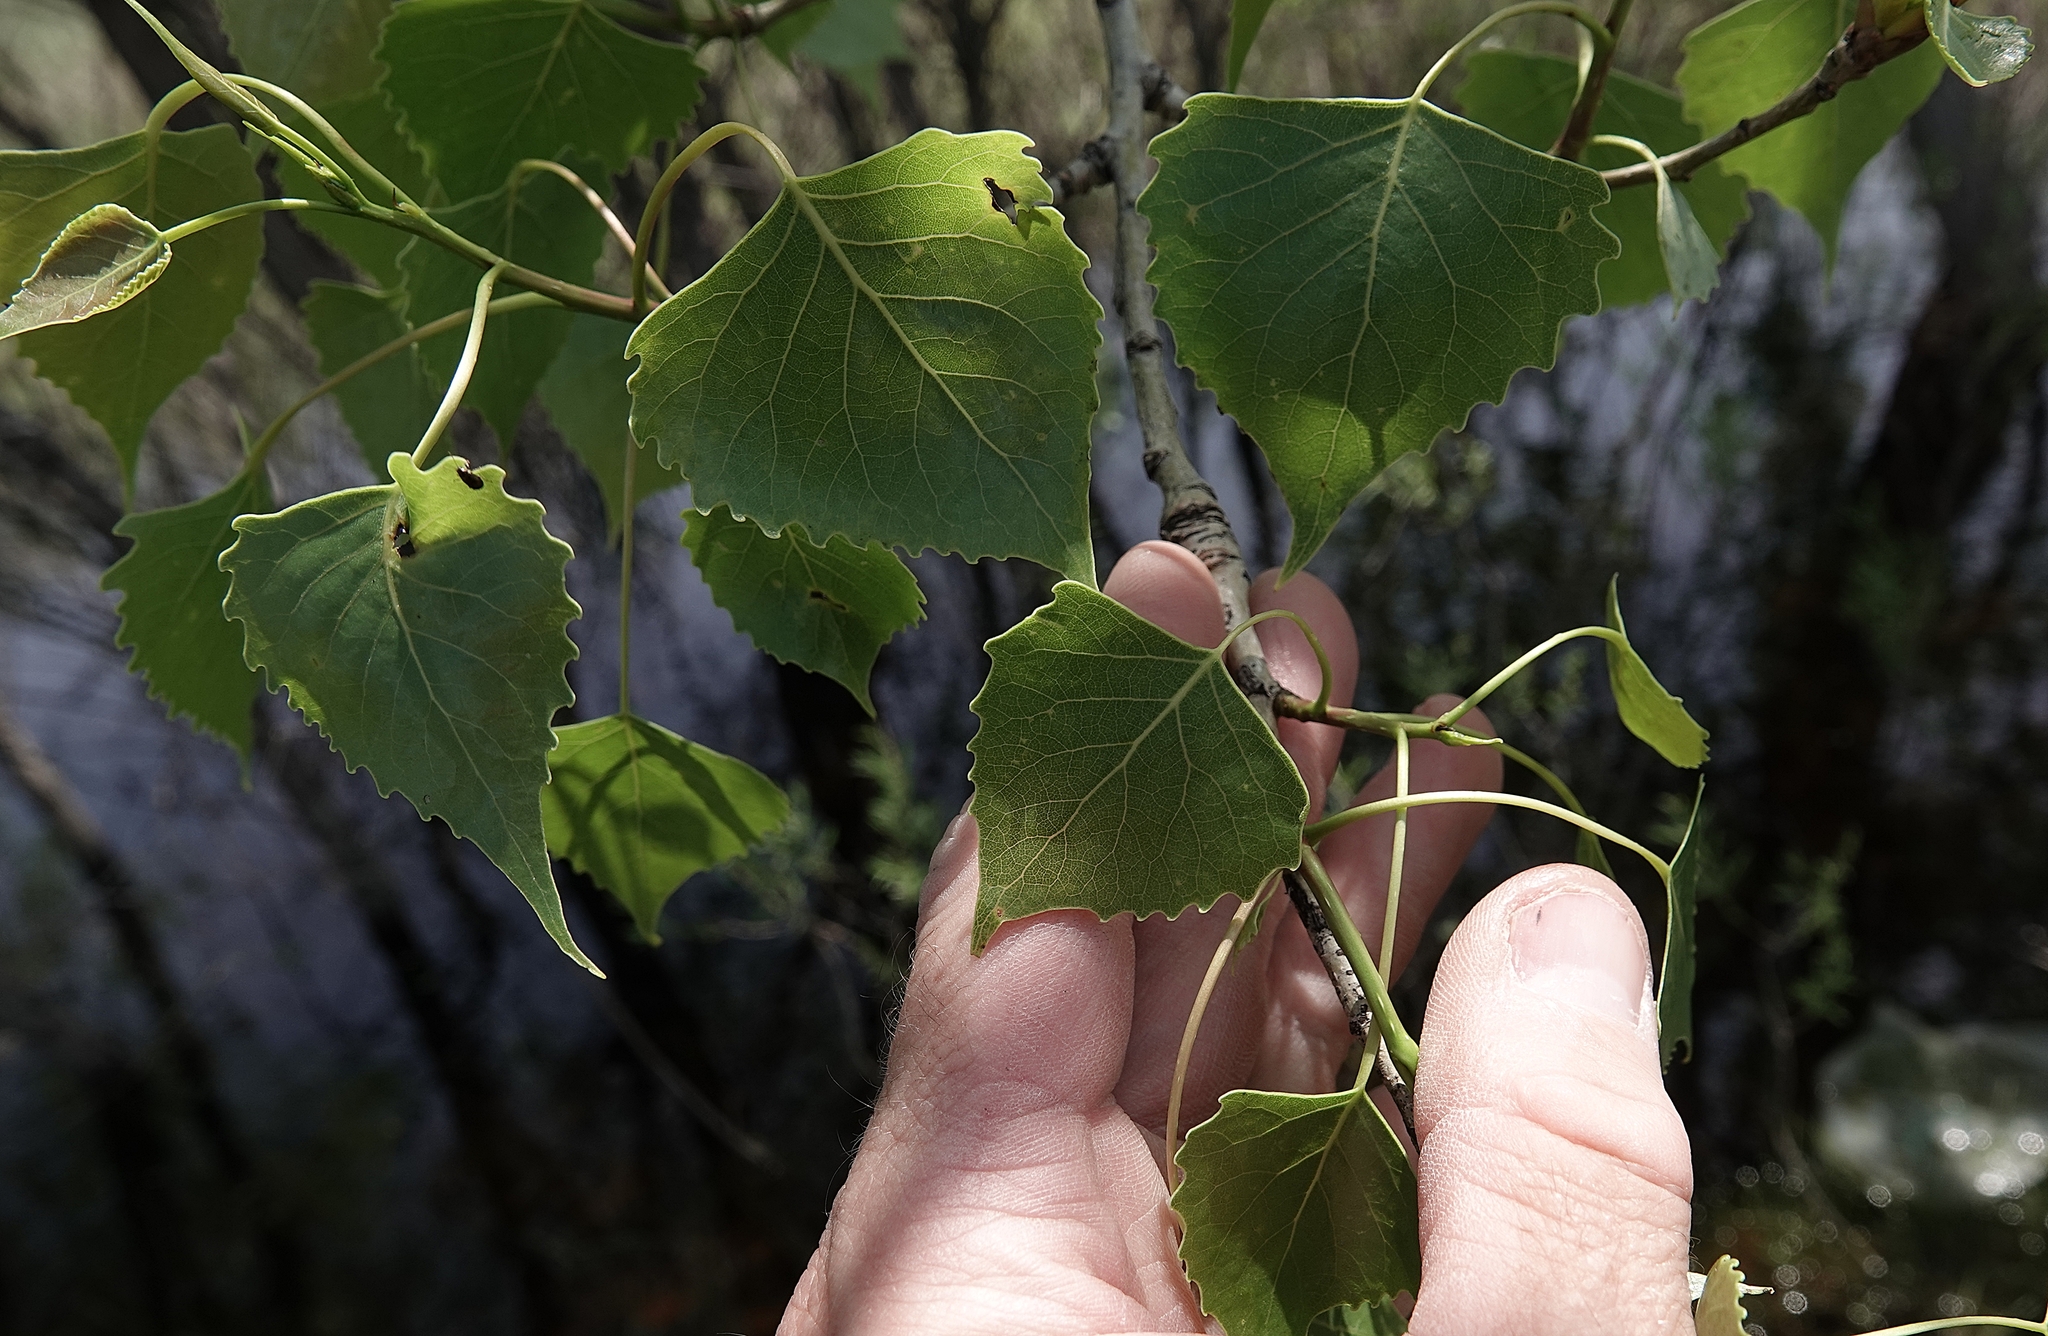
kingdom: Plantae
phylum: Tracheophyta
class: Magnoliopsida
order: Malpighiales
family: Salicaceae
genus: Populus
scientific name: Populus deltoides
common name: Eastern cottonwood
